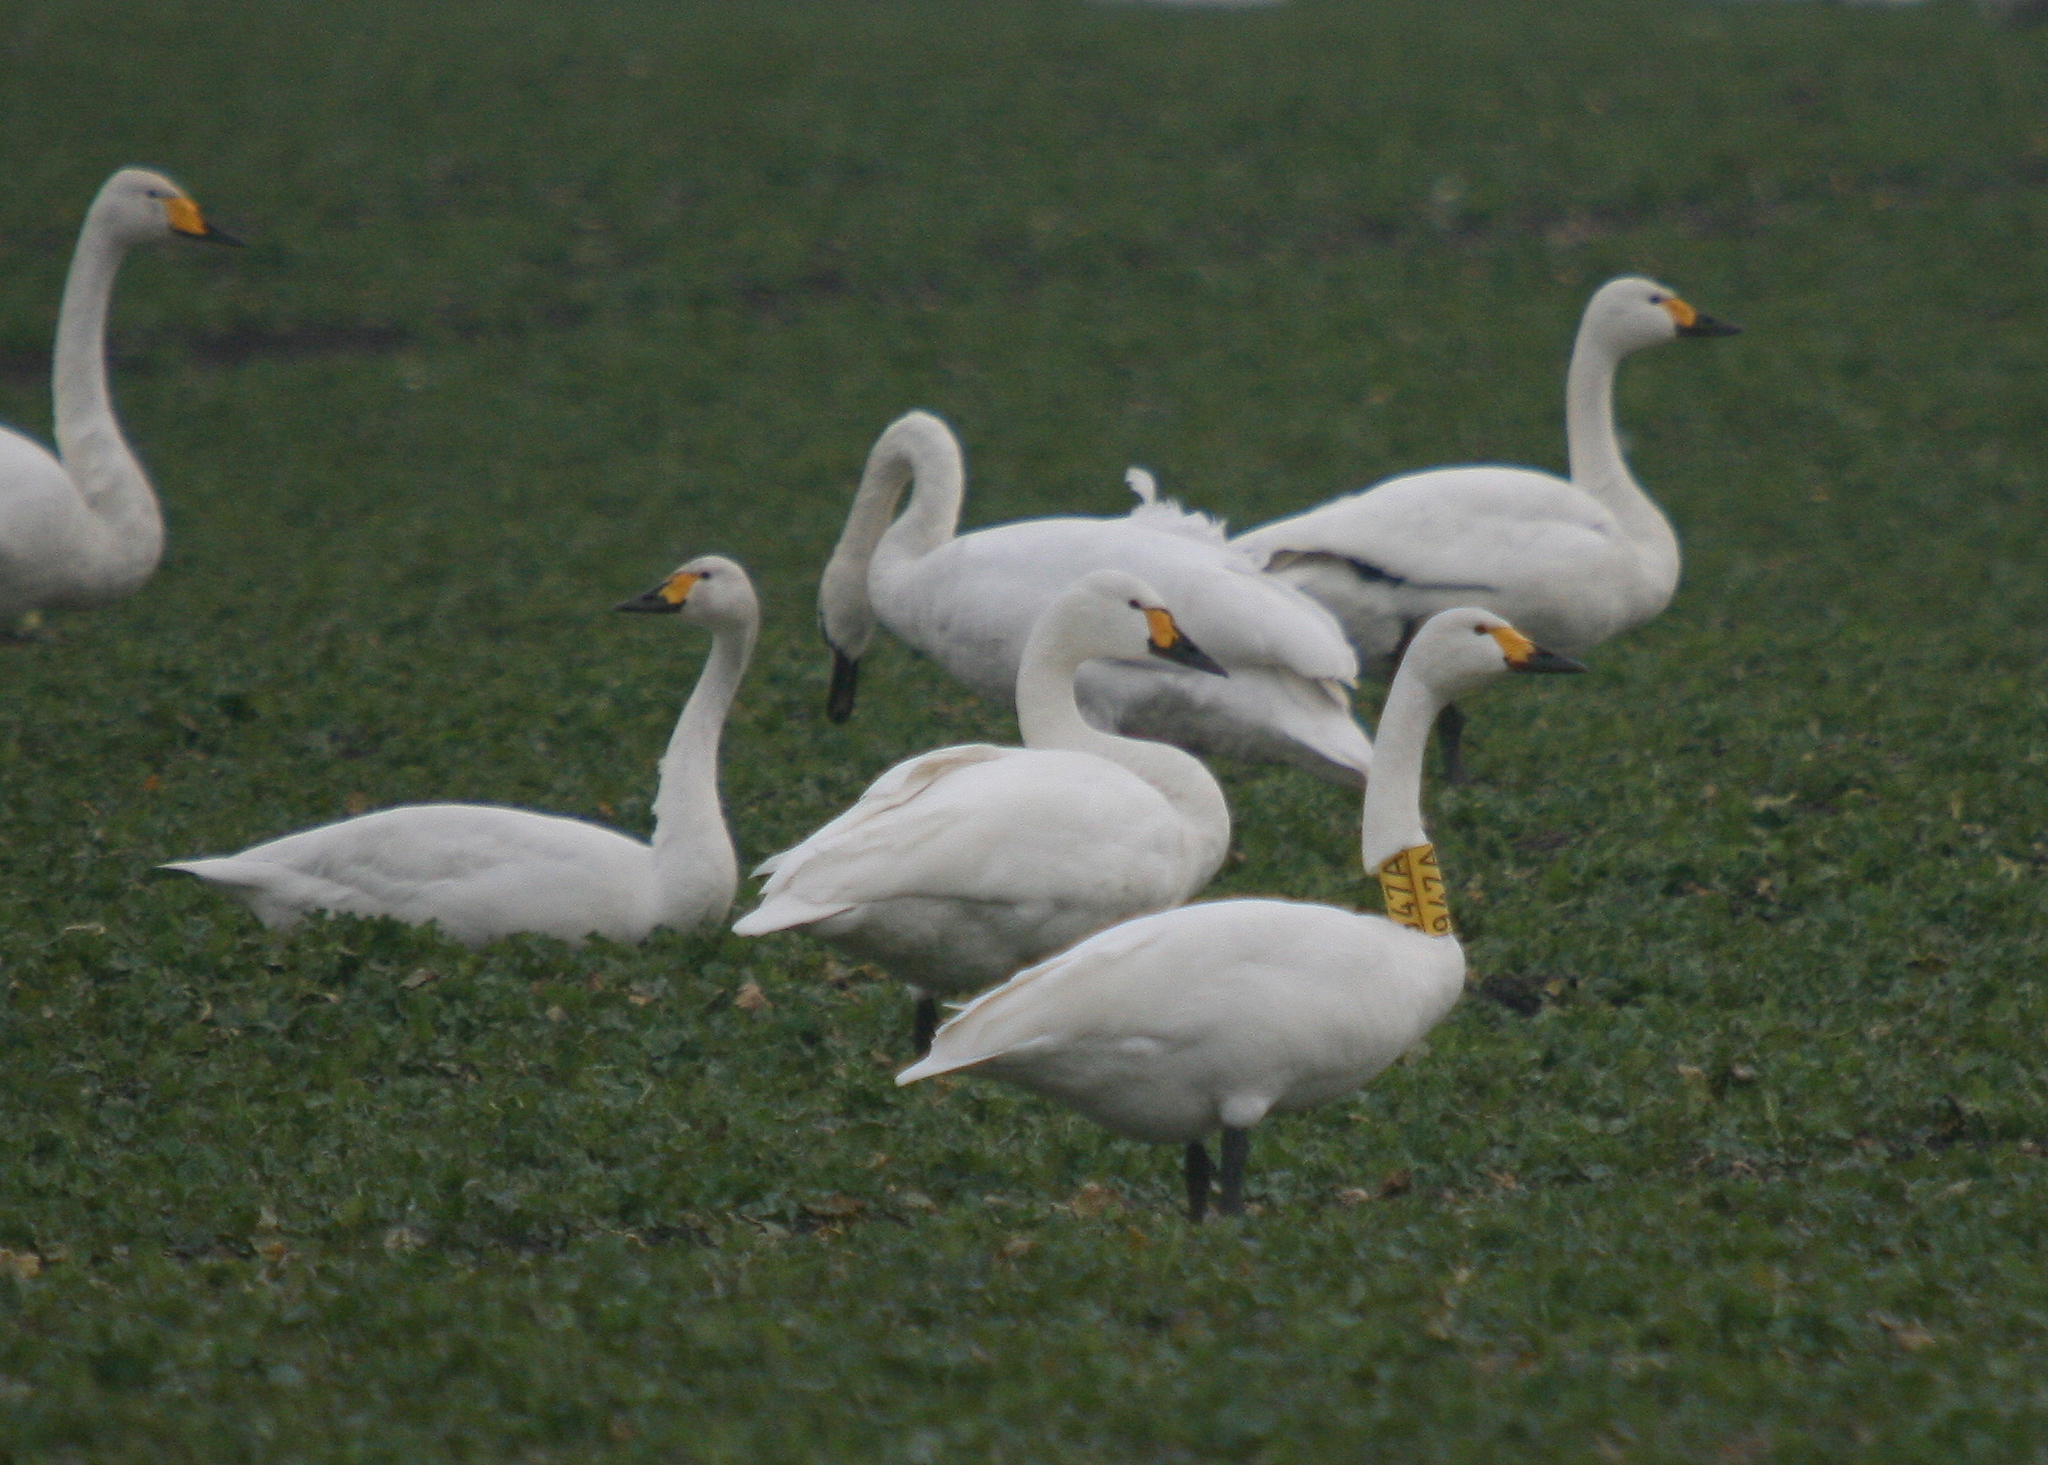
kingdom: Animalia
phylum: Chordata
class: Aves
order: Anseriformes
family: Anatidae
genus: Cygnus
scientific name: Cygnus columbianus
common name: Tundra swan
